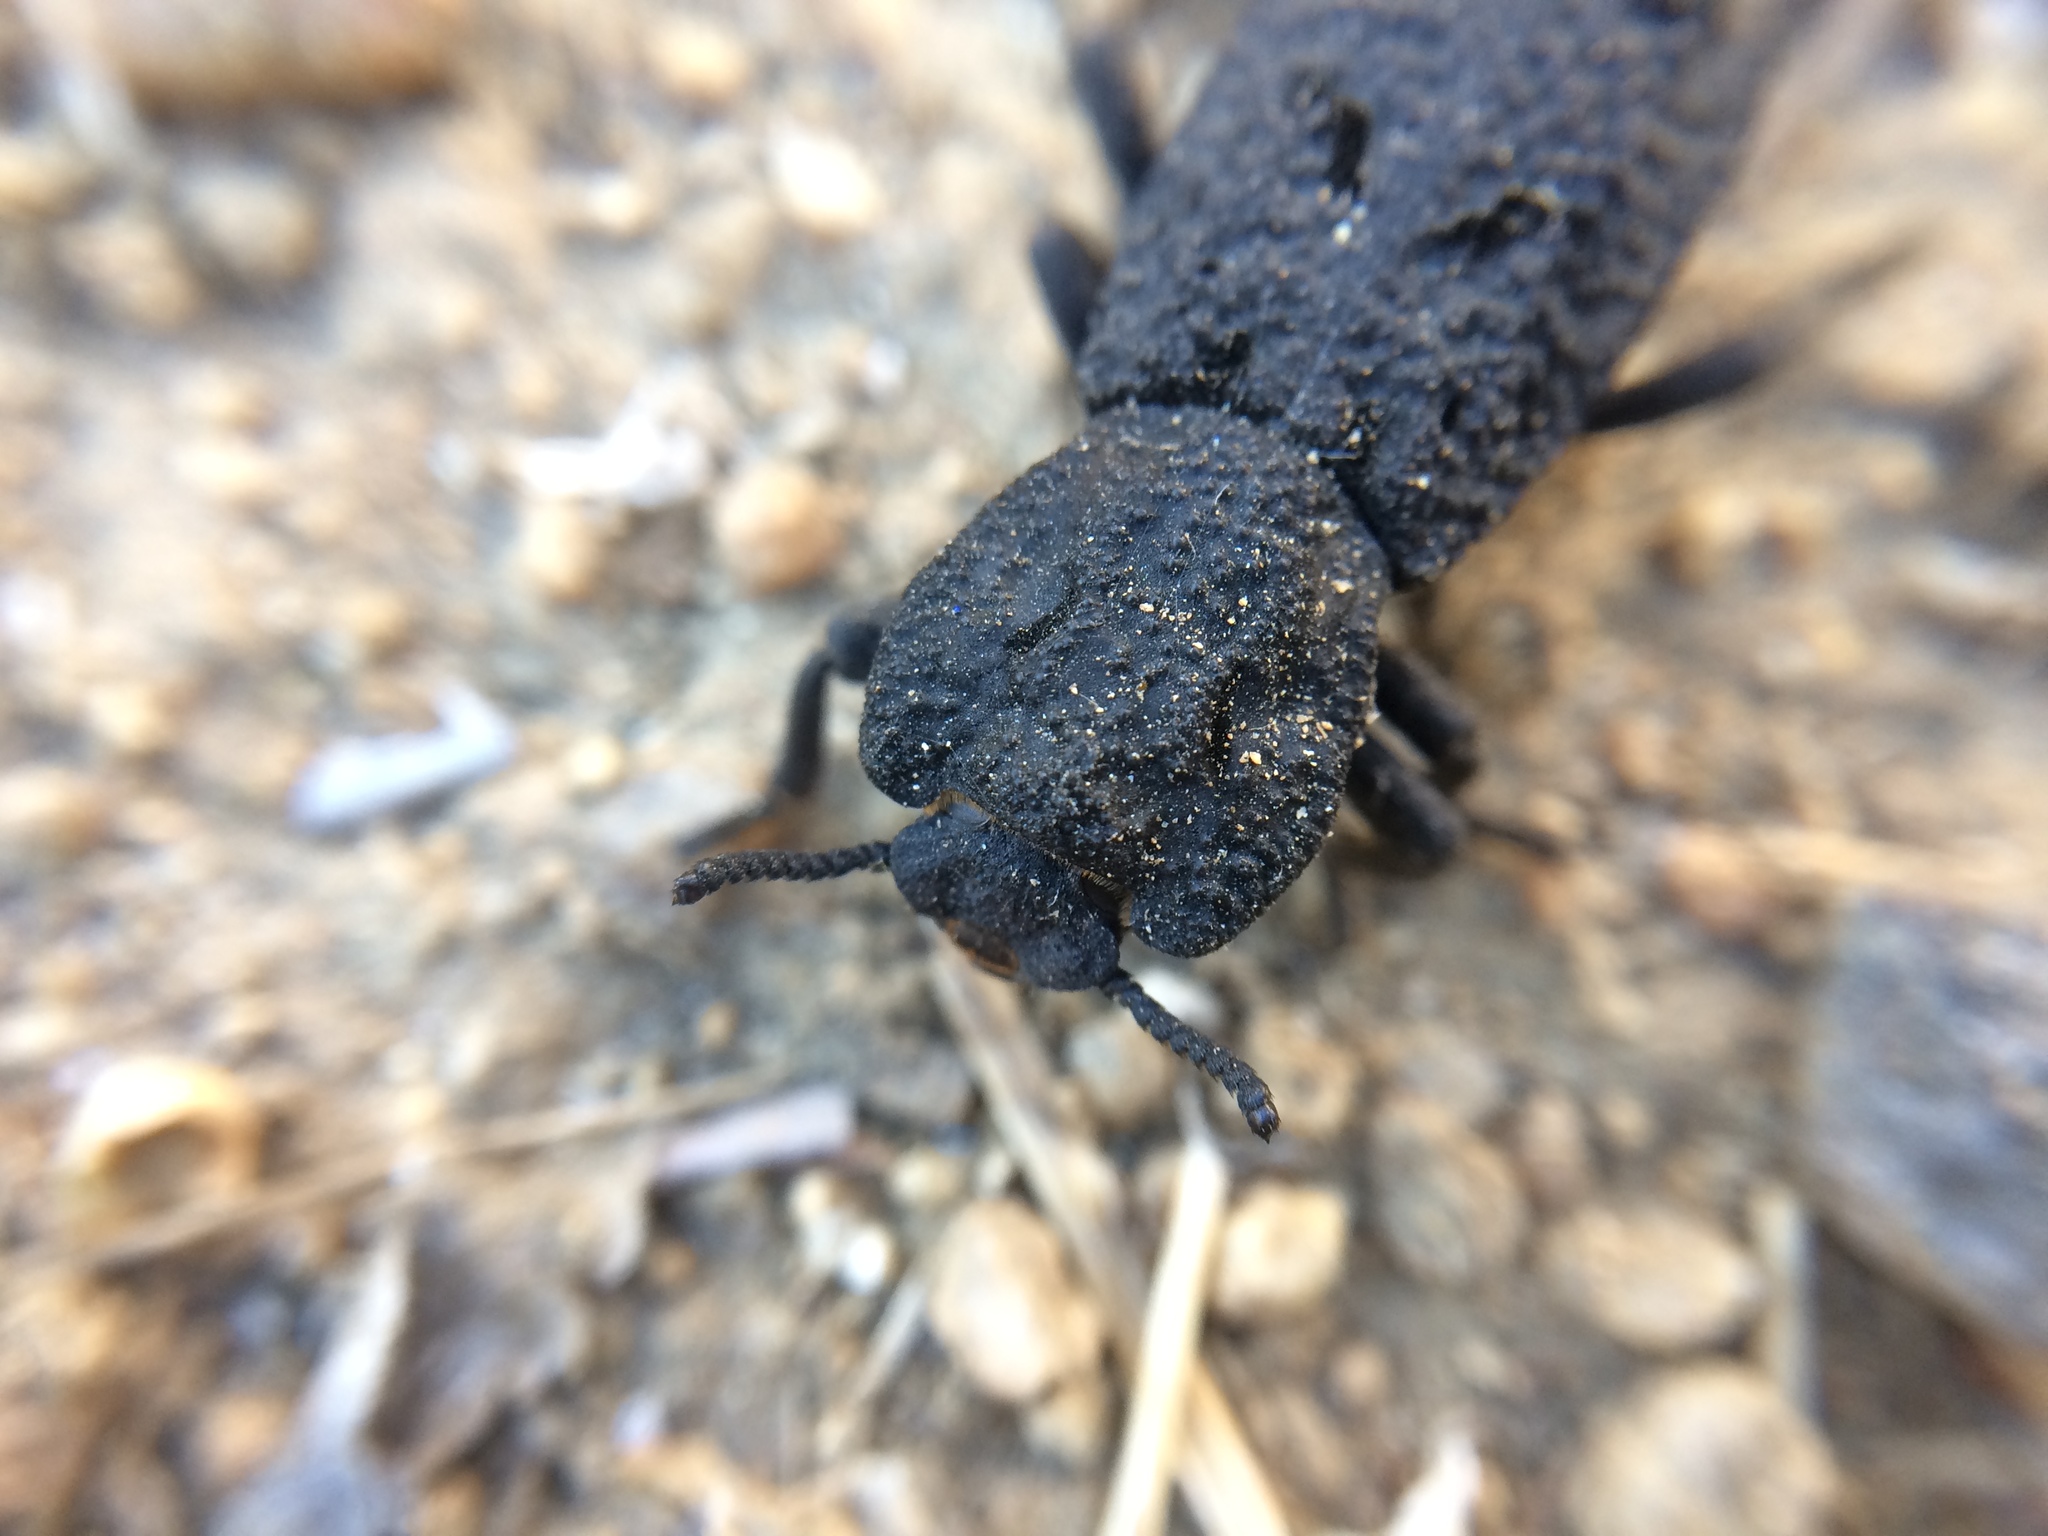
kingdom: Animalia
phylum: Arthropoda
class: Insecta
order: Coleoptera
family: Zopheridae
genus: Phloeodes
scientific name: Phloeodes diabolicus
